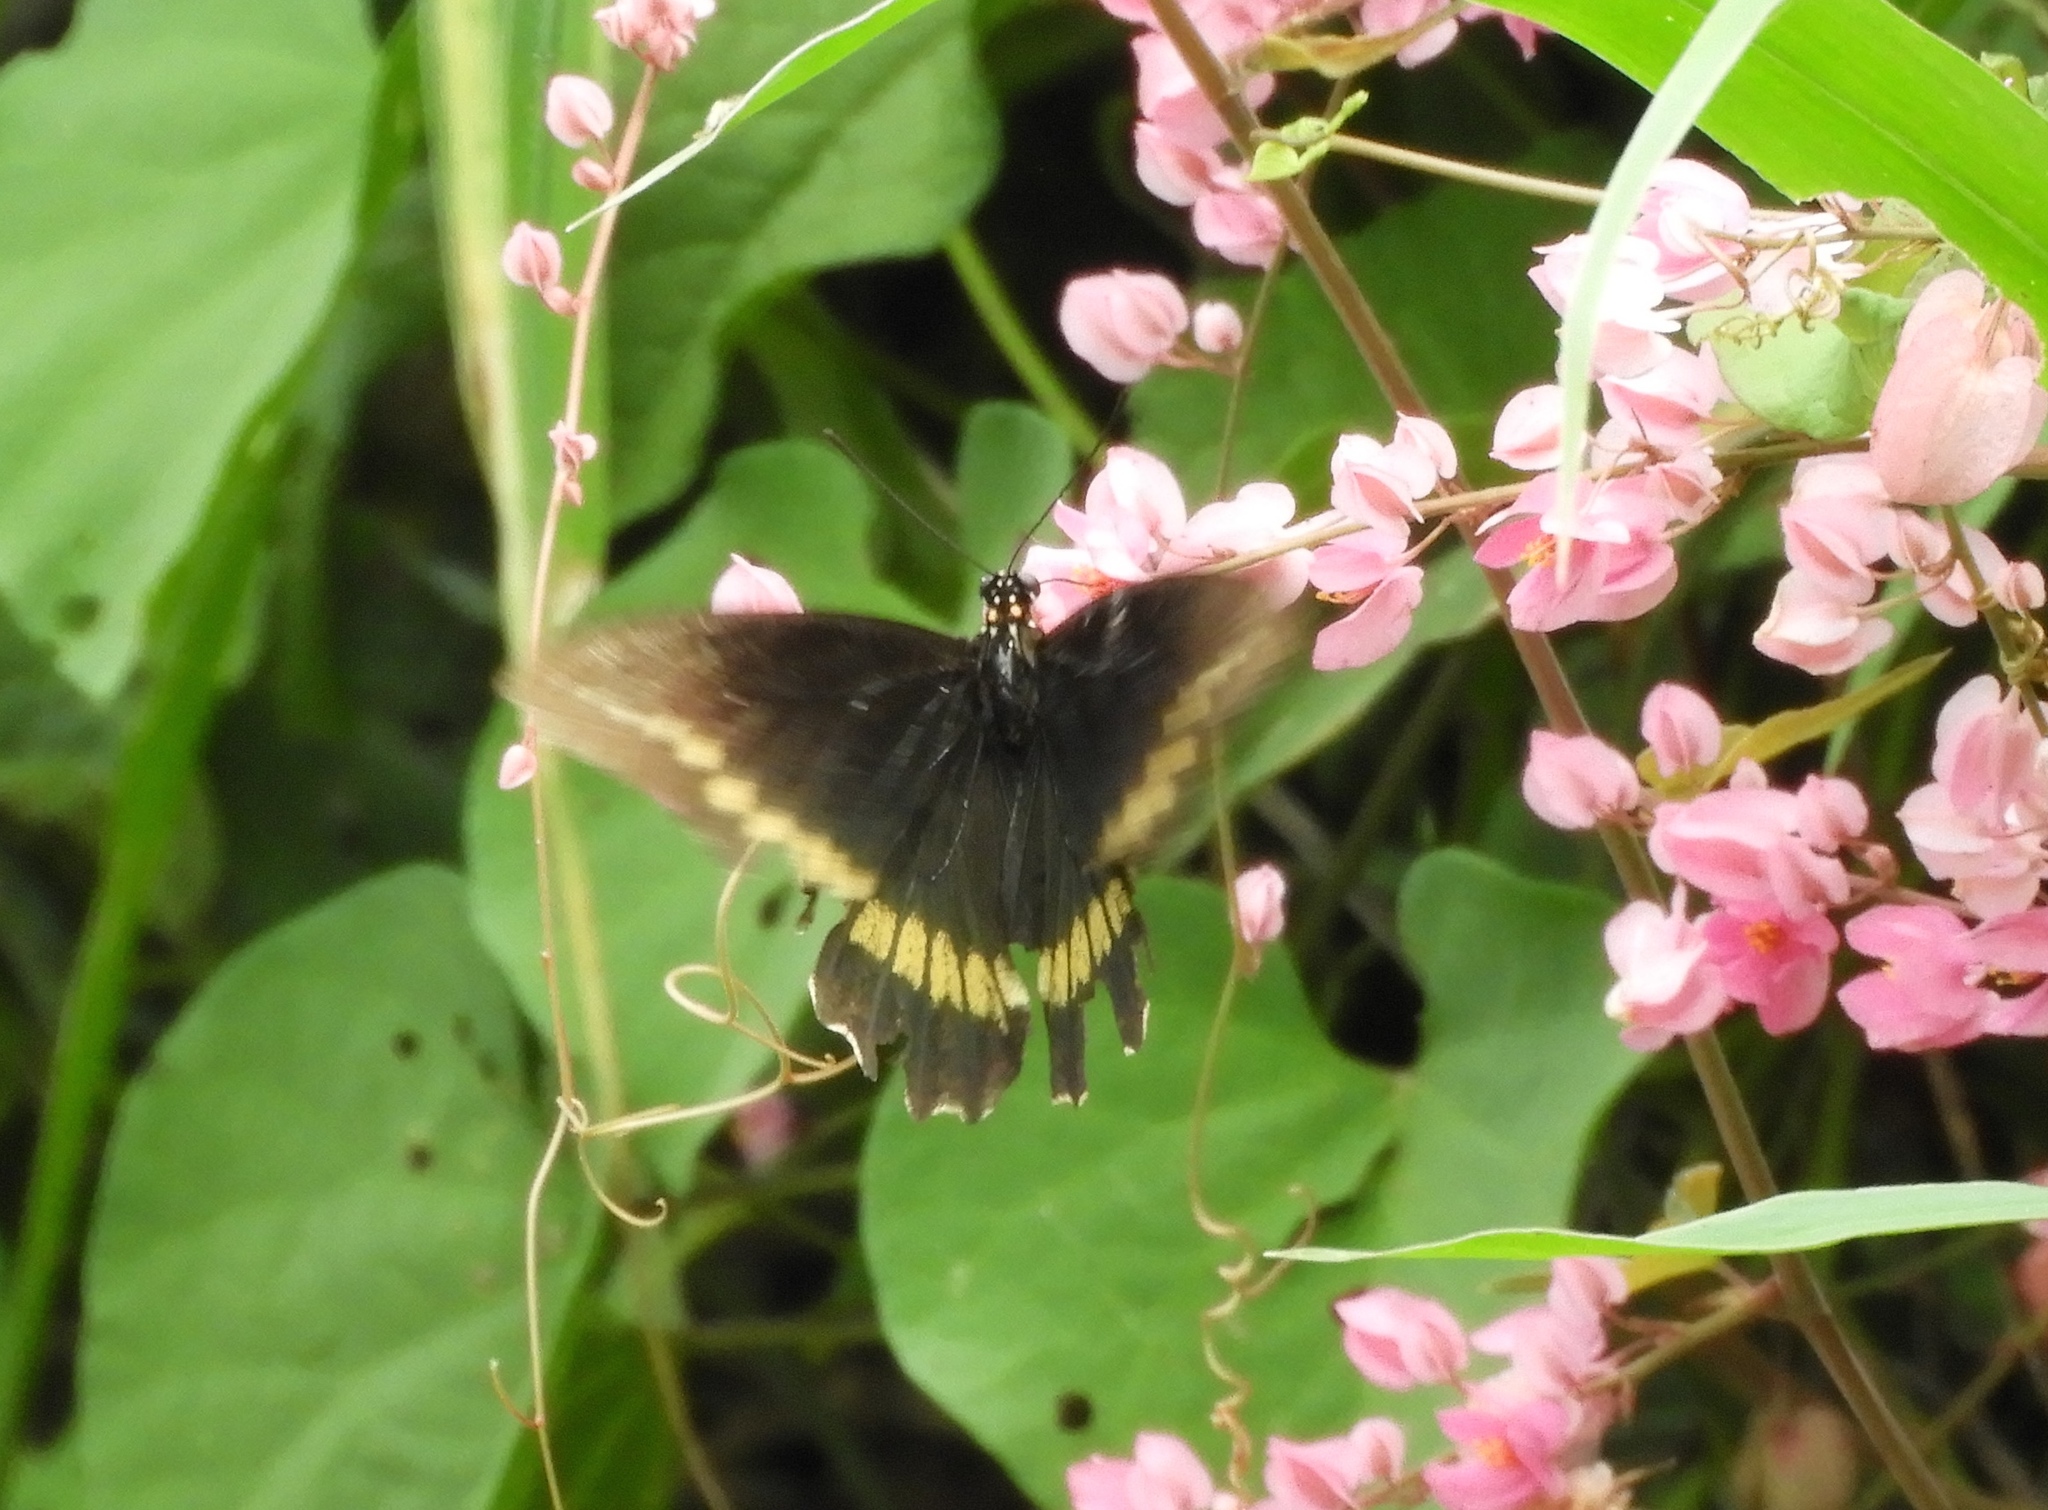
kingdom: Animalia
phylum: Arthropoda
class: Insecta
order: Lepidoptera
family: Papilionidae
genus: Battus
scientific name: Battus polydamas
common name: Polydamas swallowtail
